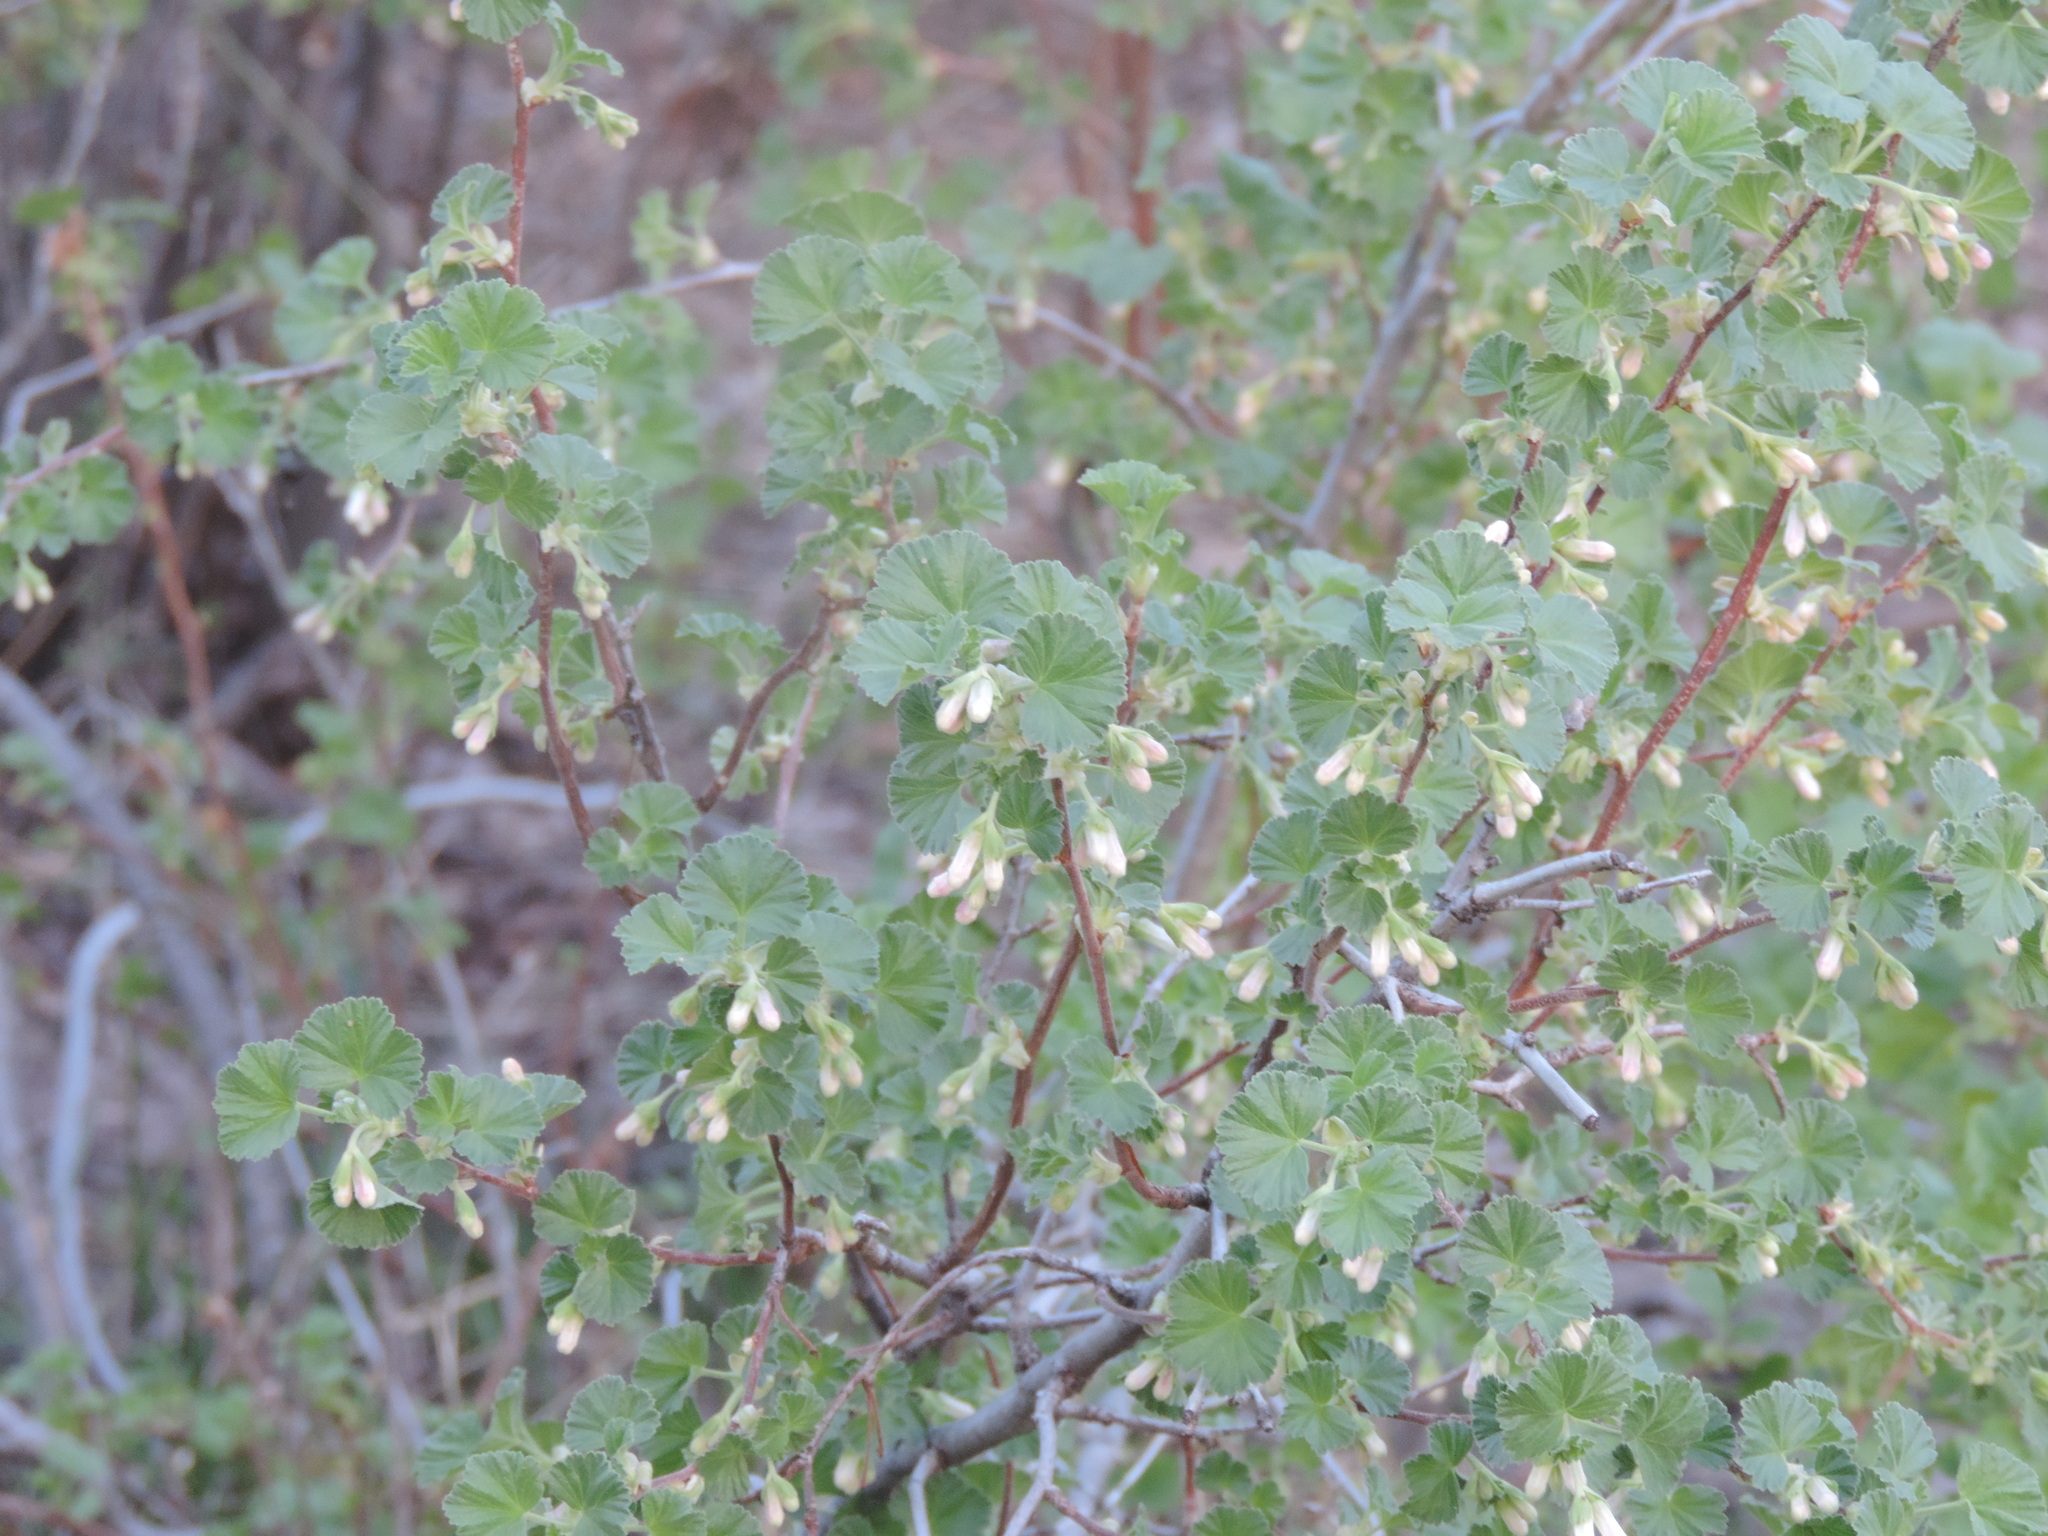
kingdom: Plantae
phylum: Tracheophyta
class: Magnoliopsida
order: Saxifragales
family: Grossulariaceae
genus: Ribes
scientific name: Ribes cereum
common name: Wax currant
